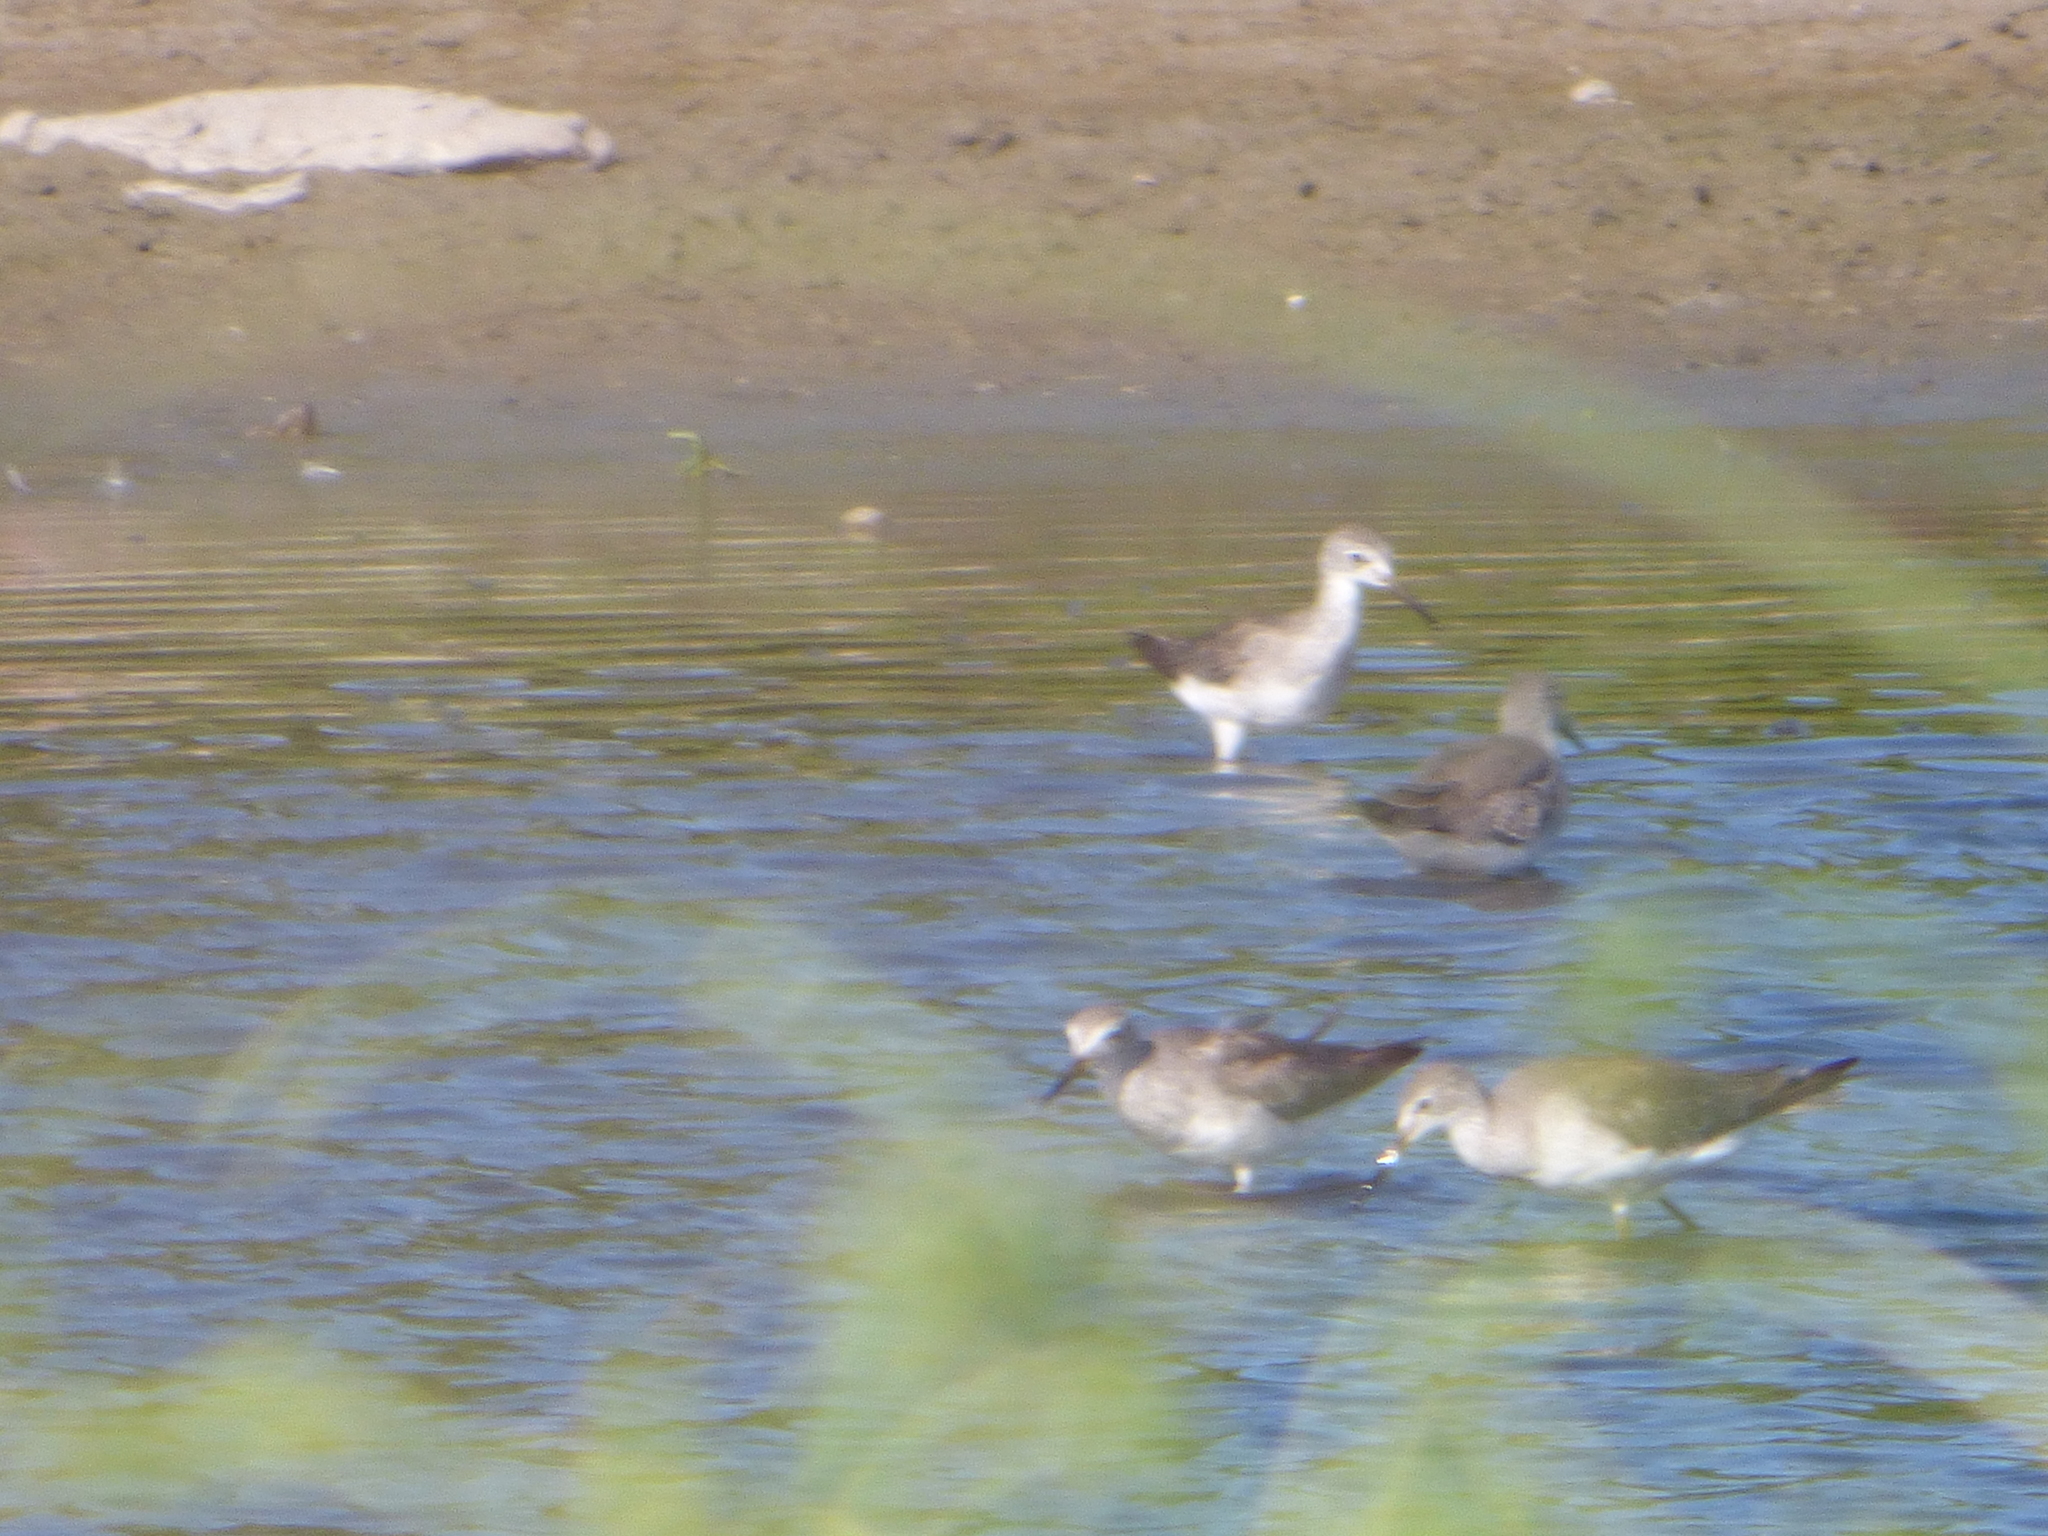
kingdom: Animalia
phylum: Chordata
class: Aves
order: Charadriiformes
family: Scolopacidae
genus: Tringa
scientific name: Tringa flavipes
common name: Lesser yellowlegs
